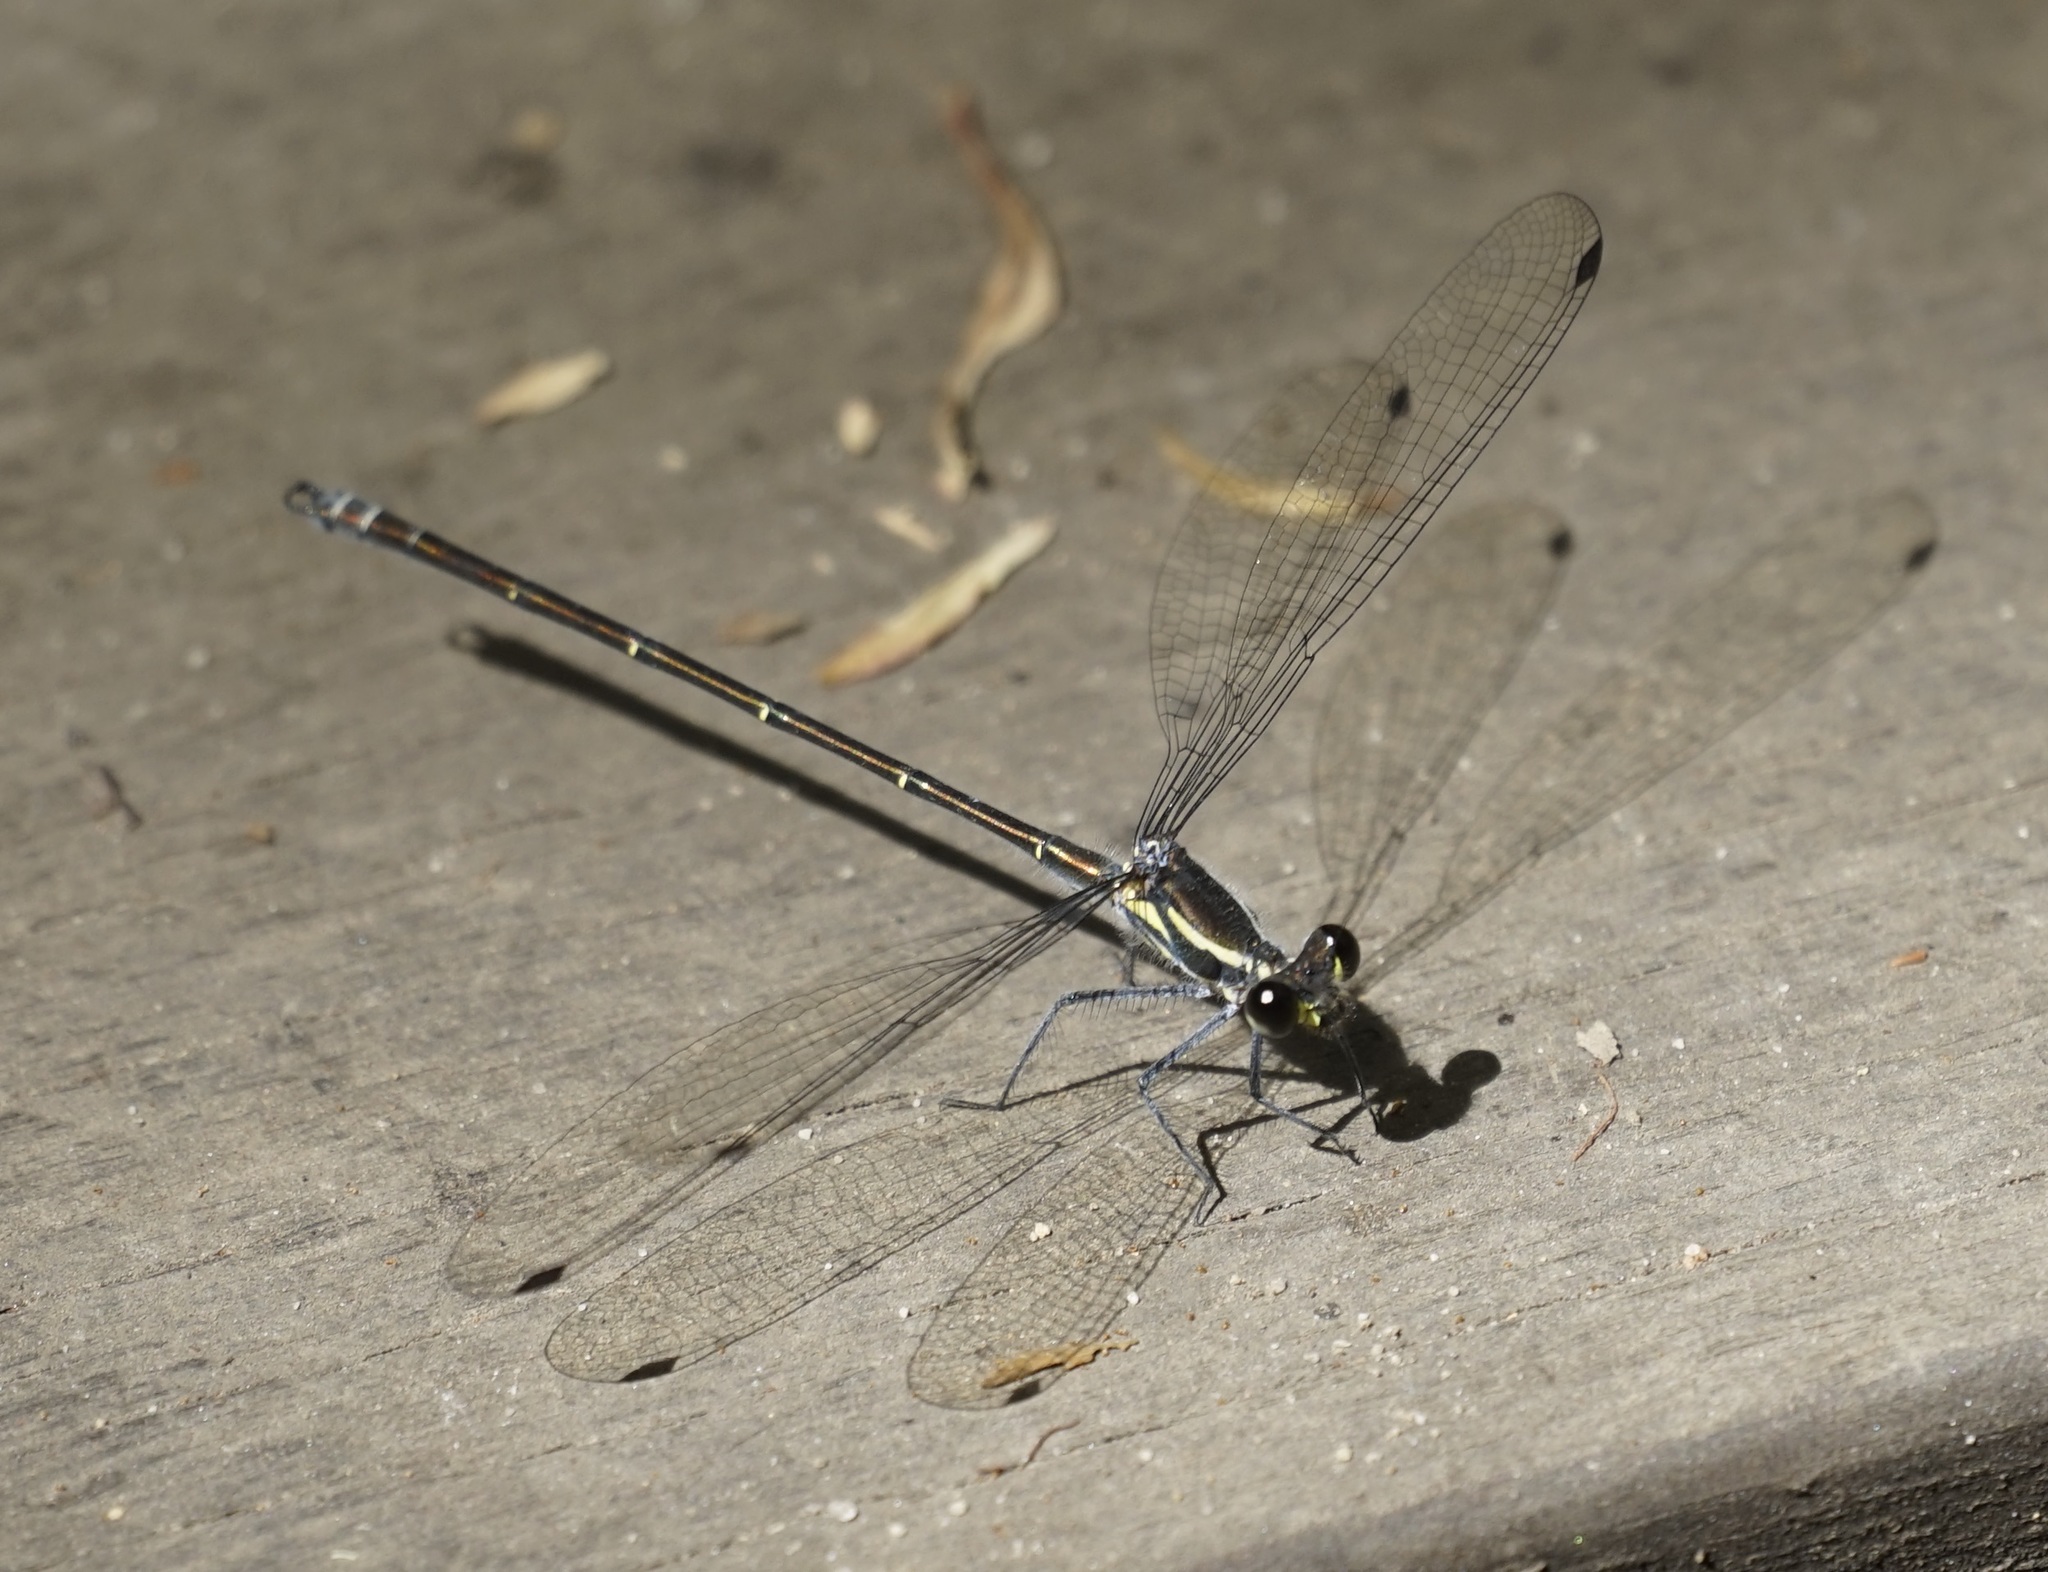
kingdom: Animalia
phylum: Arthropoda
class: Insecta
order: Odonata
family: Argiolestidae
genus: Austroargiolestes
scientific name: Austroargiolestes icteromelas
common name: Common flatwing
